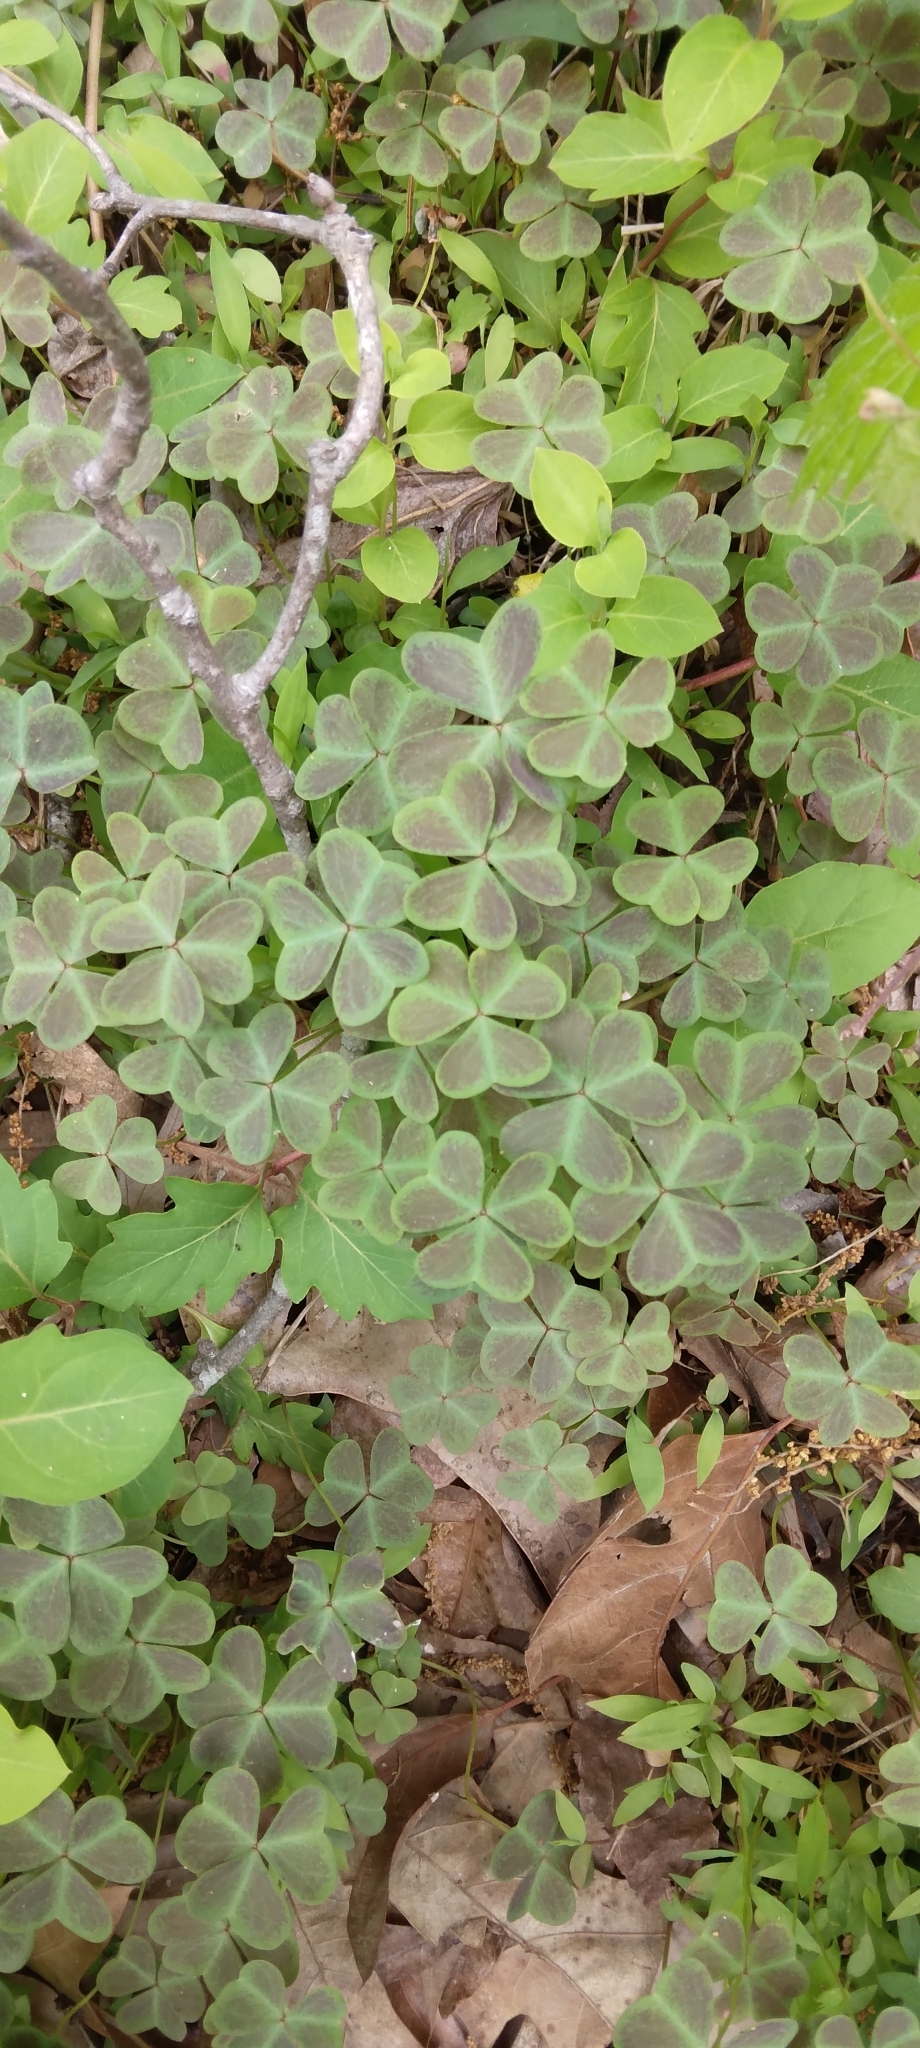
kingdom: Plantae
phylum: Tracheophyta
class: Magnoliopsida
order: Oxalidales
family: Oxalidaceae
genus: Oxalis
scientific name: Oxalis violacea
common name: Violet wood-sorrel
